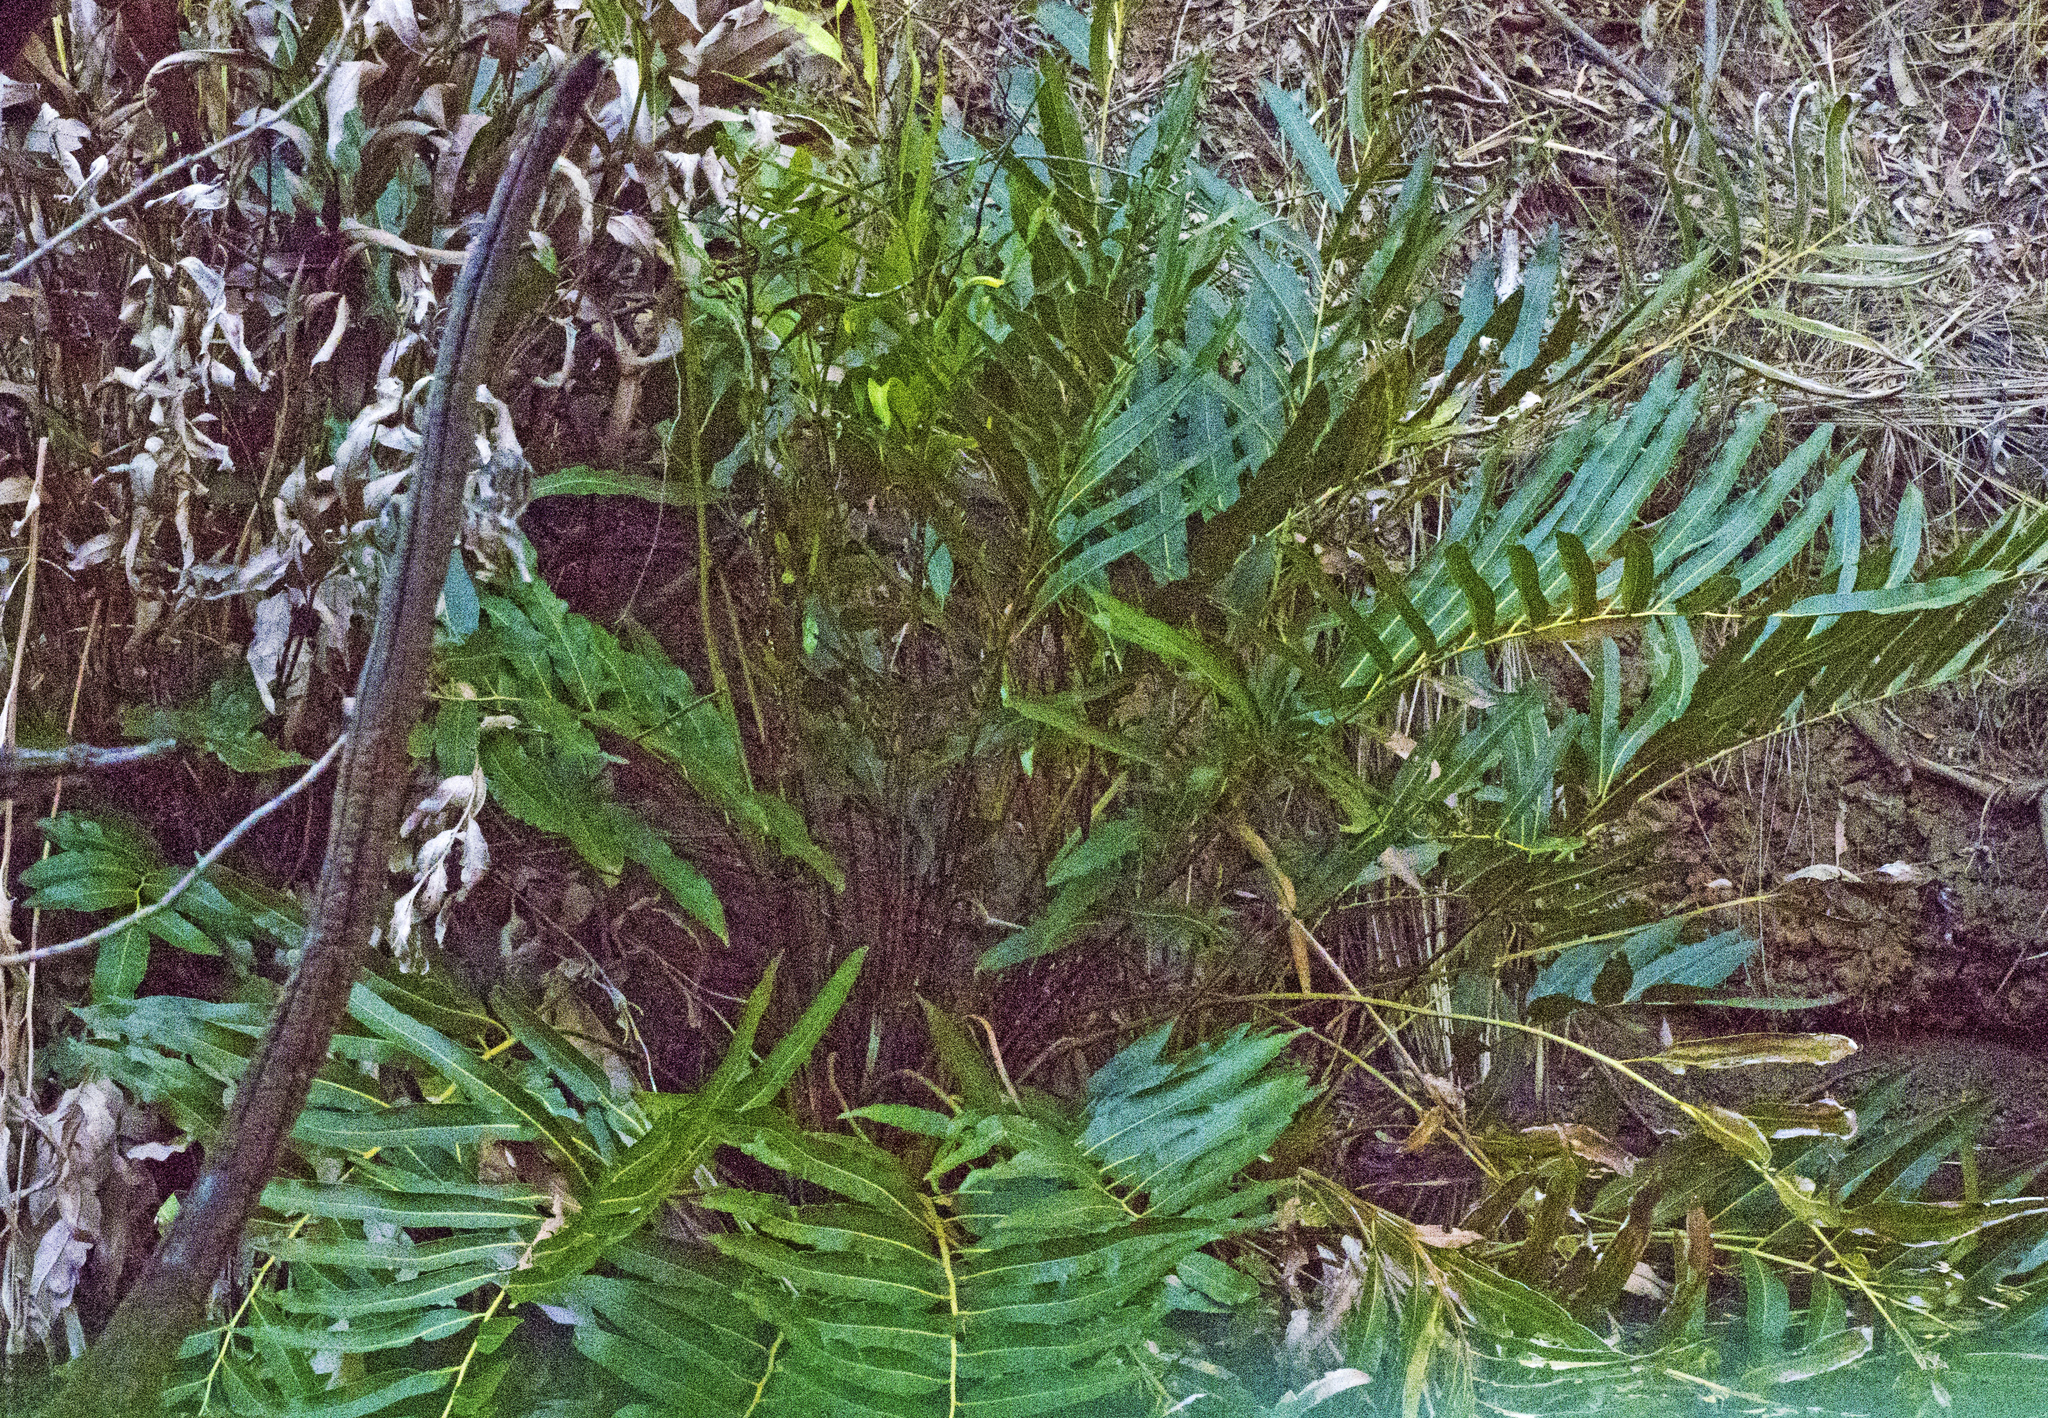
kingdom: Plantae
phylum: Tracheophyta
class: Polypodiopsida
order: Polypodiales
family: Pteridaceae
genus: Acrostichum
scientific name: Acrostichum speciosum
